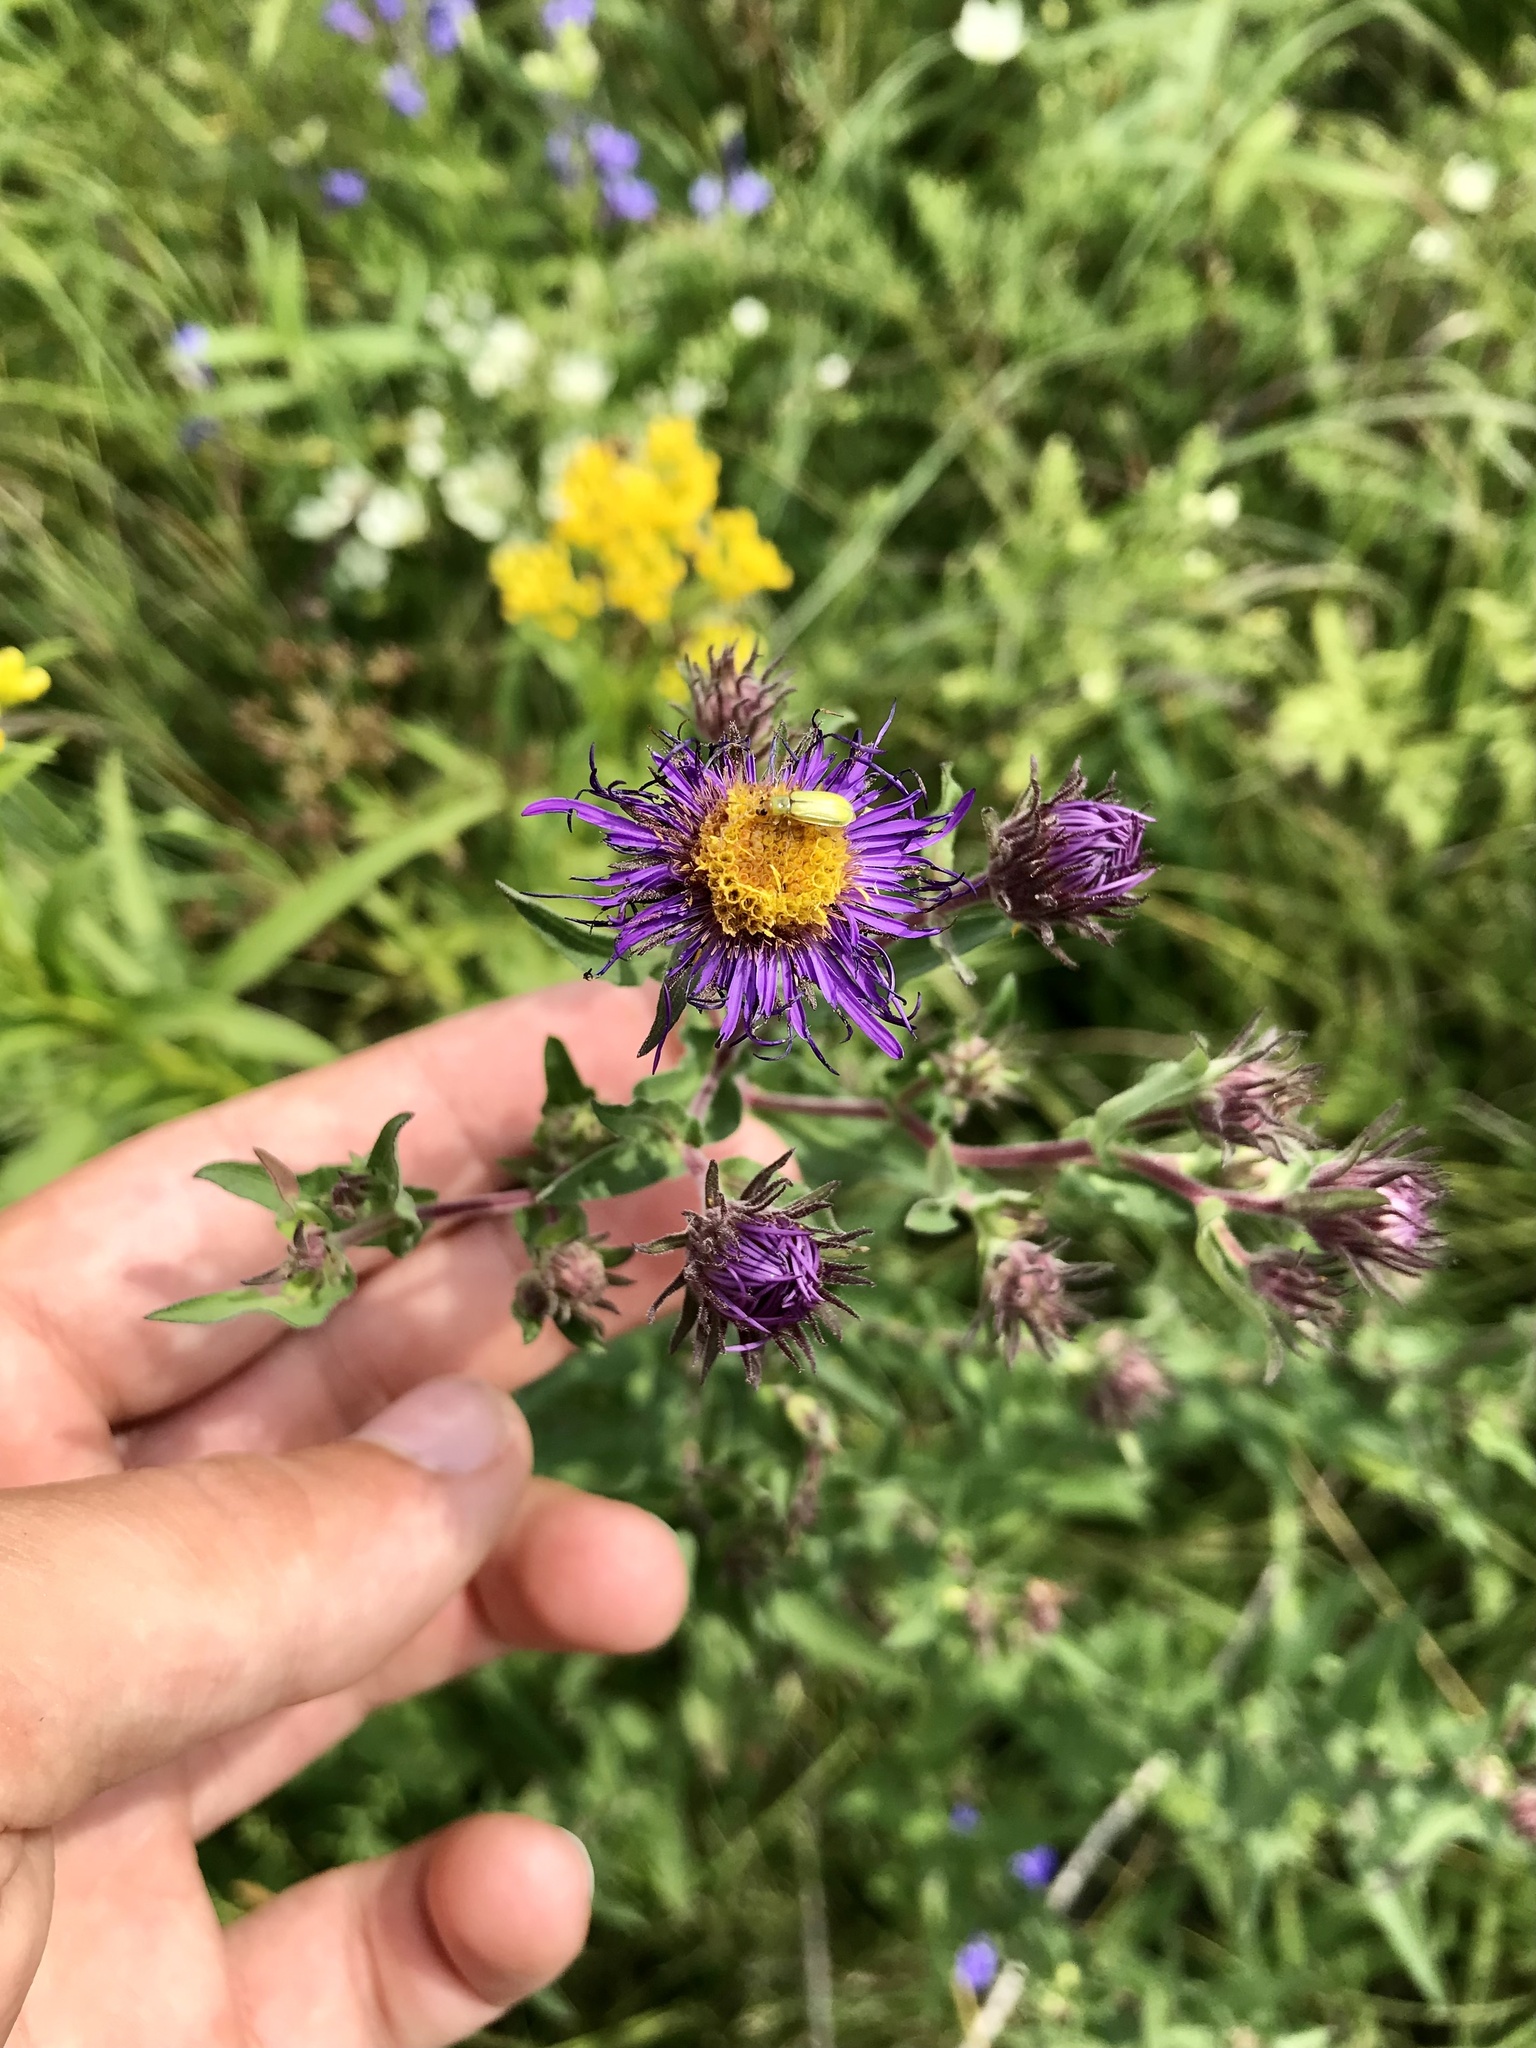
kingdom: Plantae
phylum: Tracheophyta
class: Magnoliopsida
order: Asterales
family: Asteraceae
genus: Symphyotrichum
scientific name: Symphyotrichum novae-angliae
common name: Michaelmas daisy
